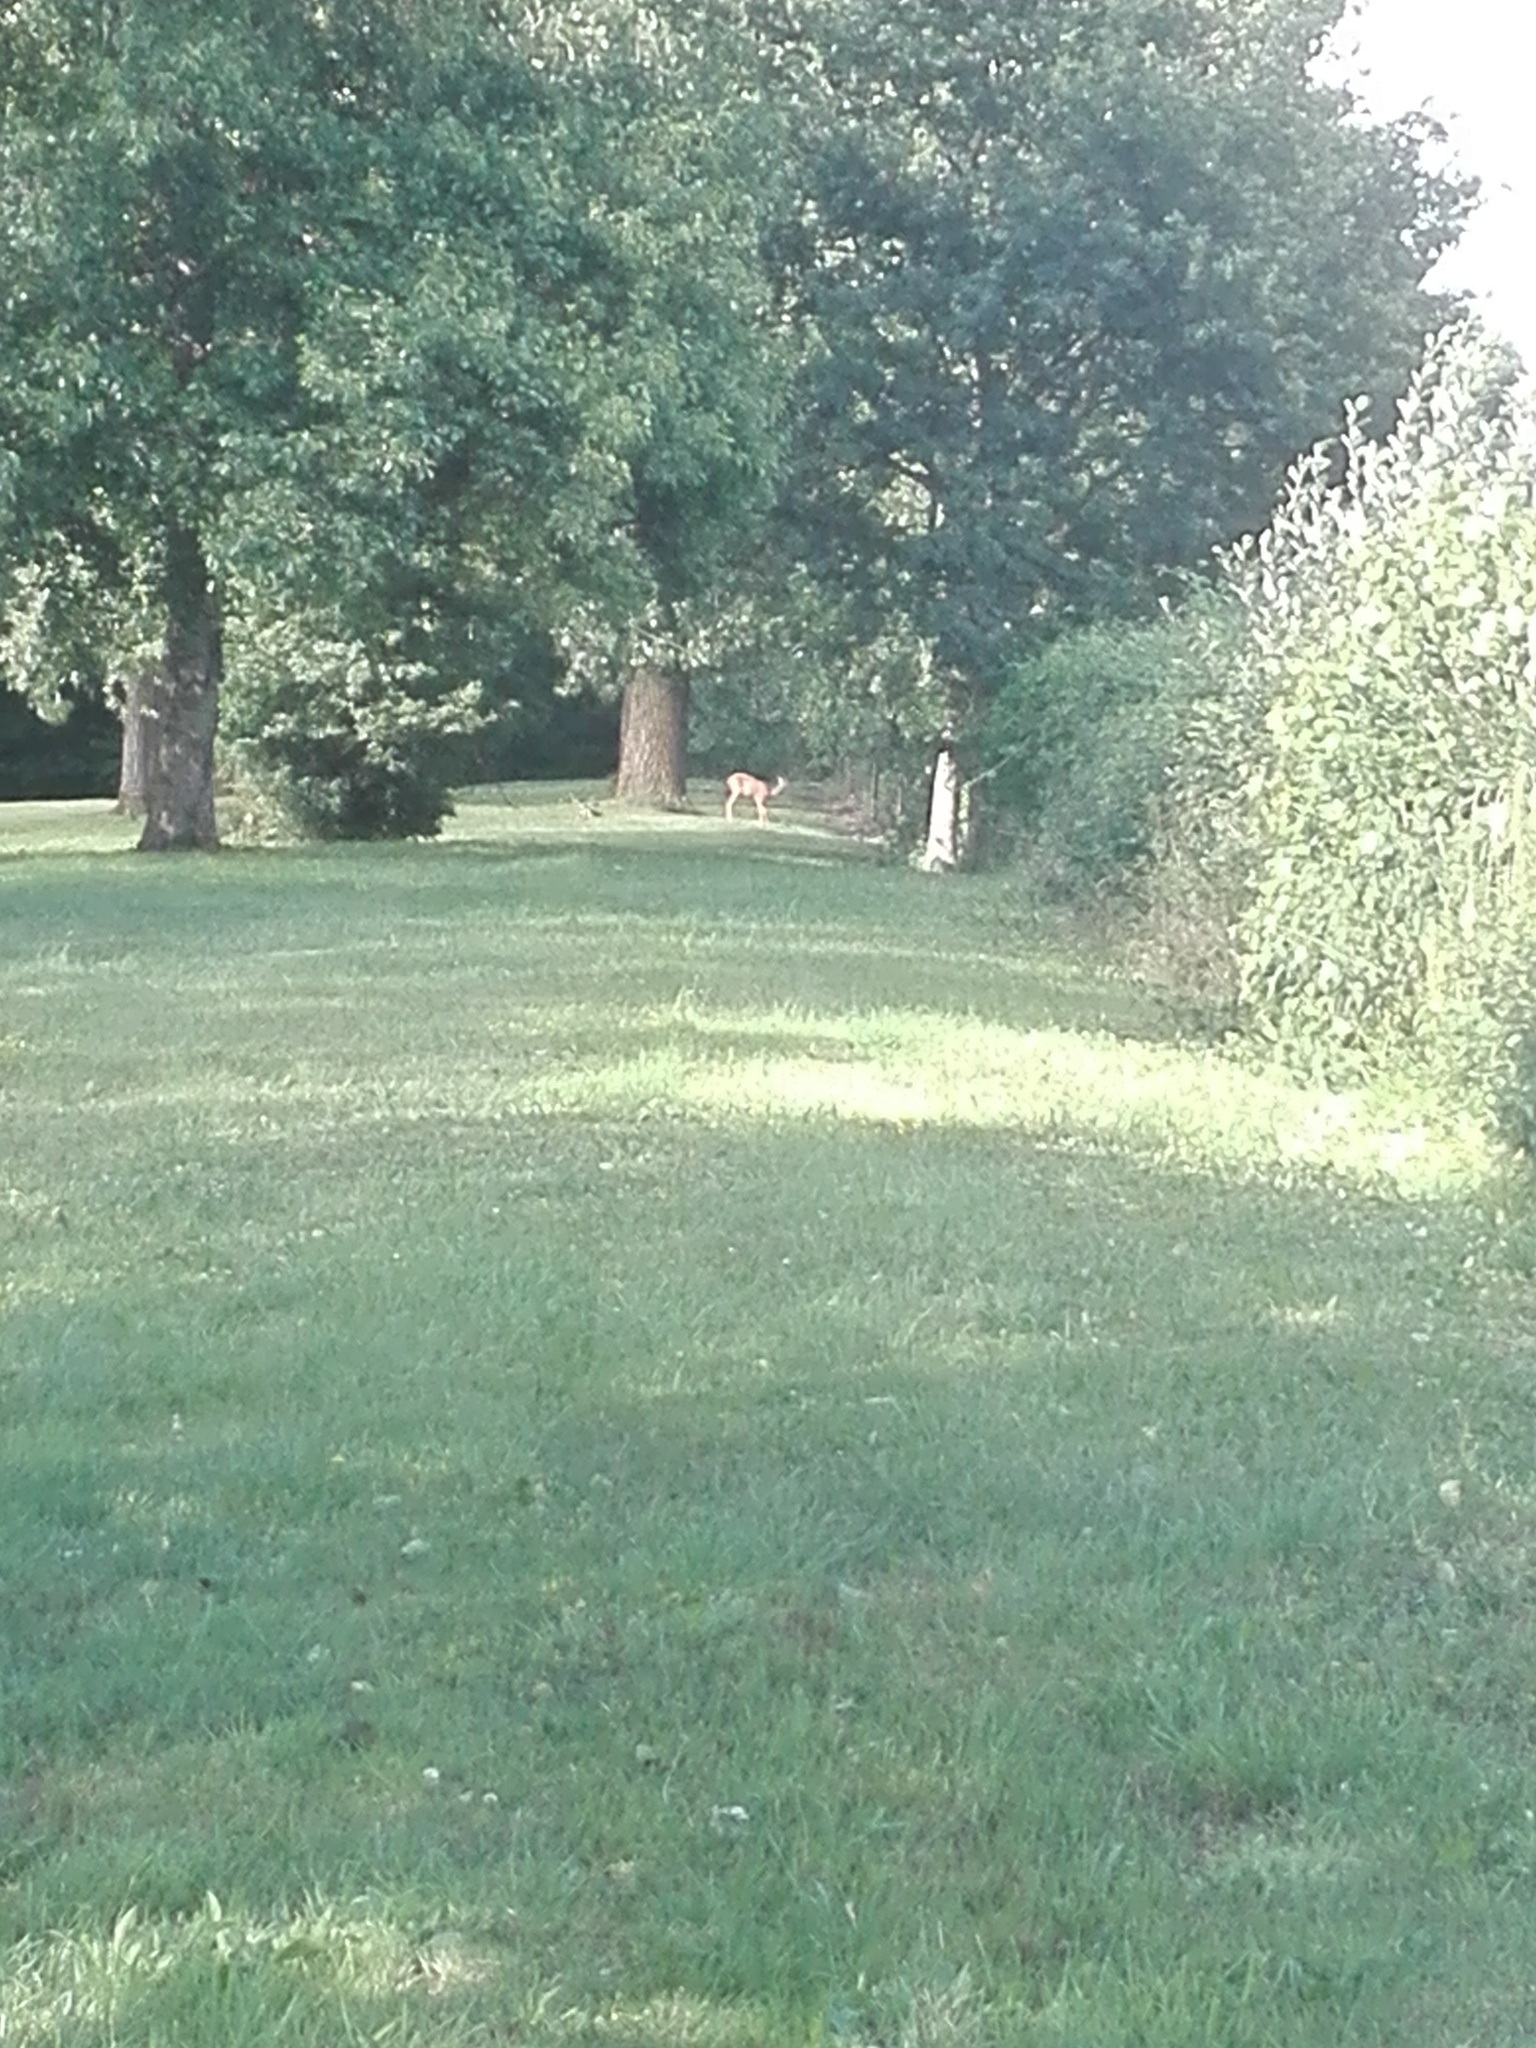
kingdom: Animalia
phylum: Chordata
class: Mammalia
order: Artiodactyla
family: Cervidae
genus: Capreolus
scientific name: Capreolus capreolus
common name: Western roe deer
